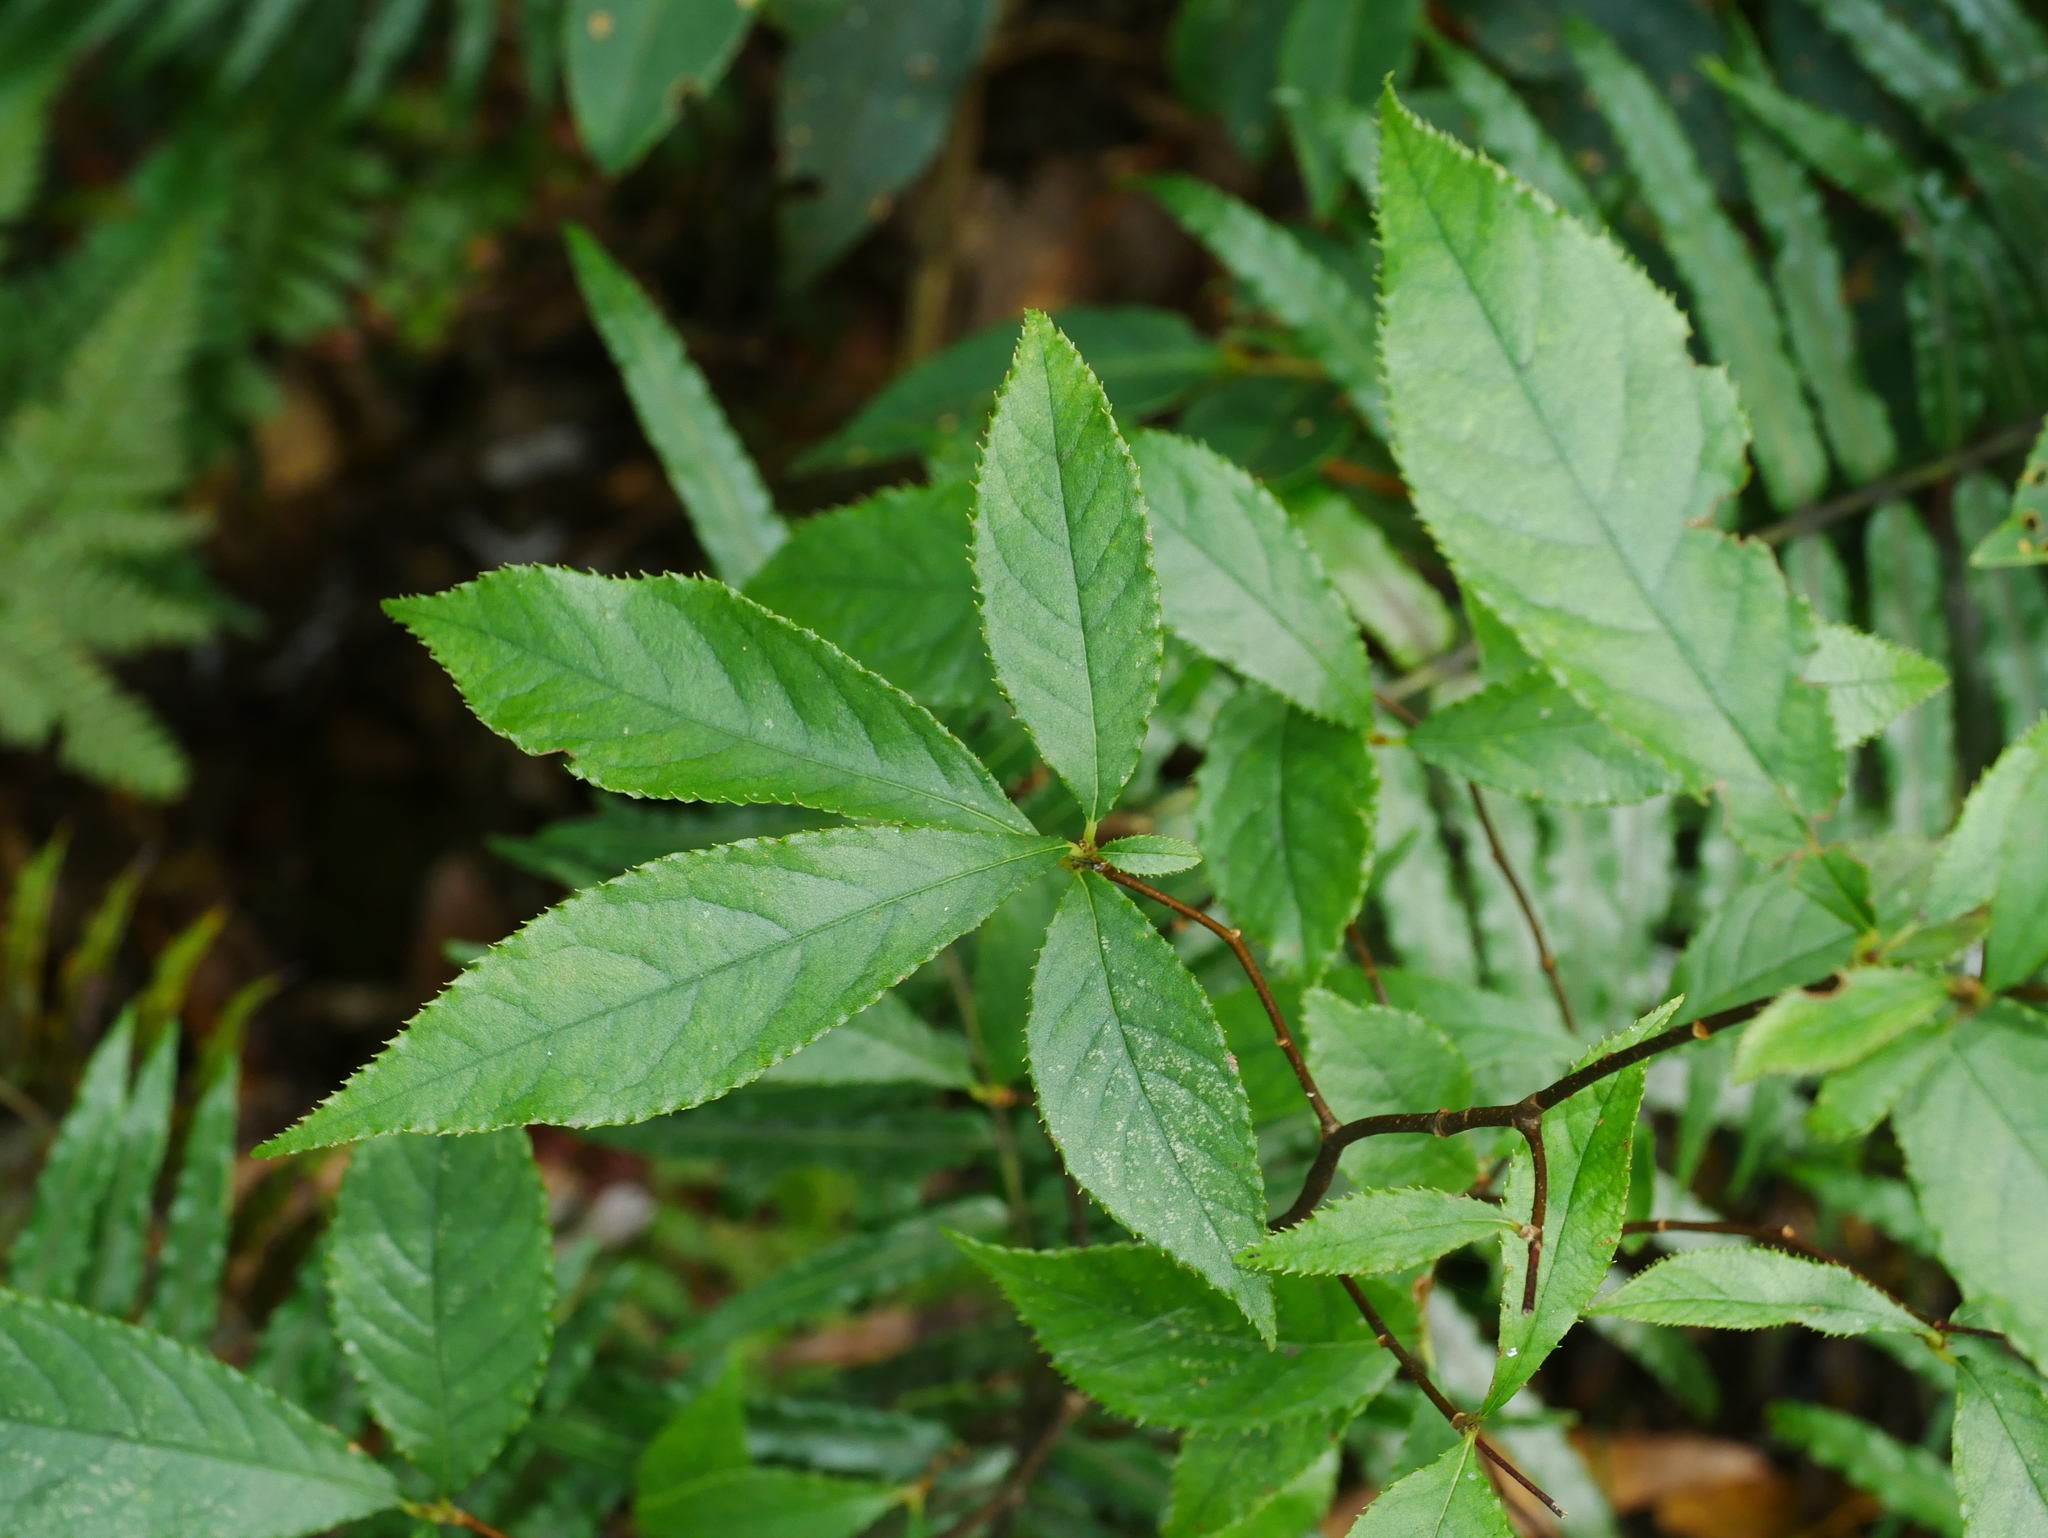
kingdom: Plantae
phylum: Tracheophyta
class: Magnoliopsida
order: Rosales
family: Rosaceae
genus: Pourthiaea
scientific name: Pourthiaea beauverdiana
